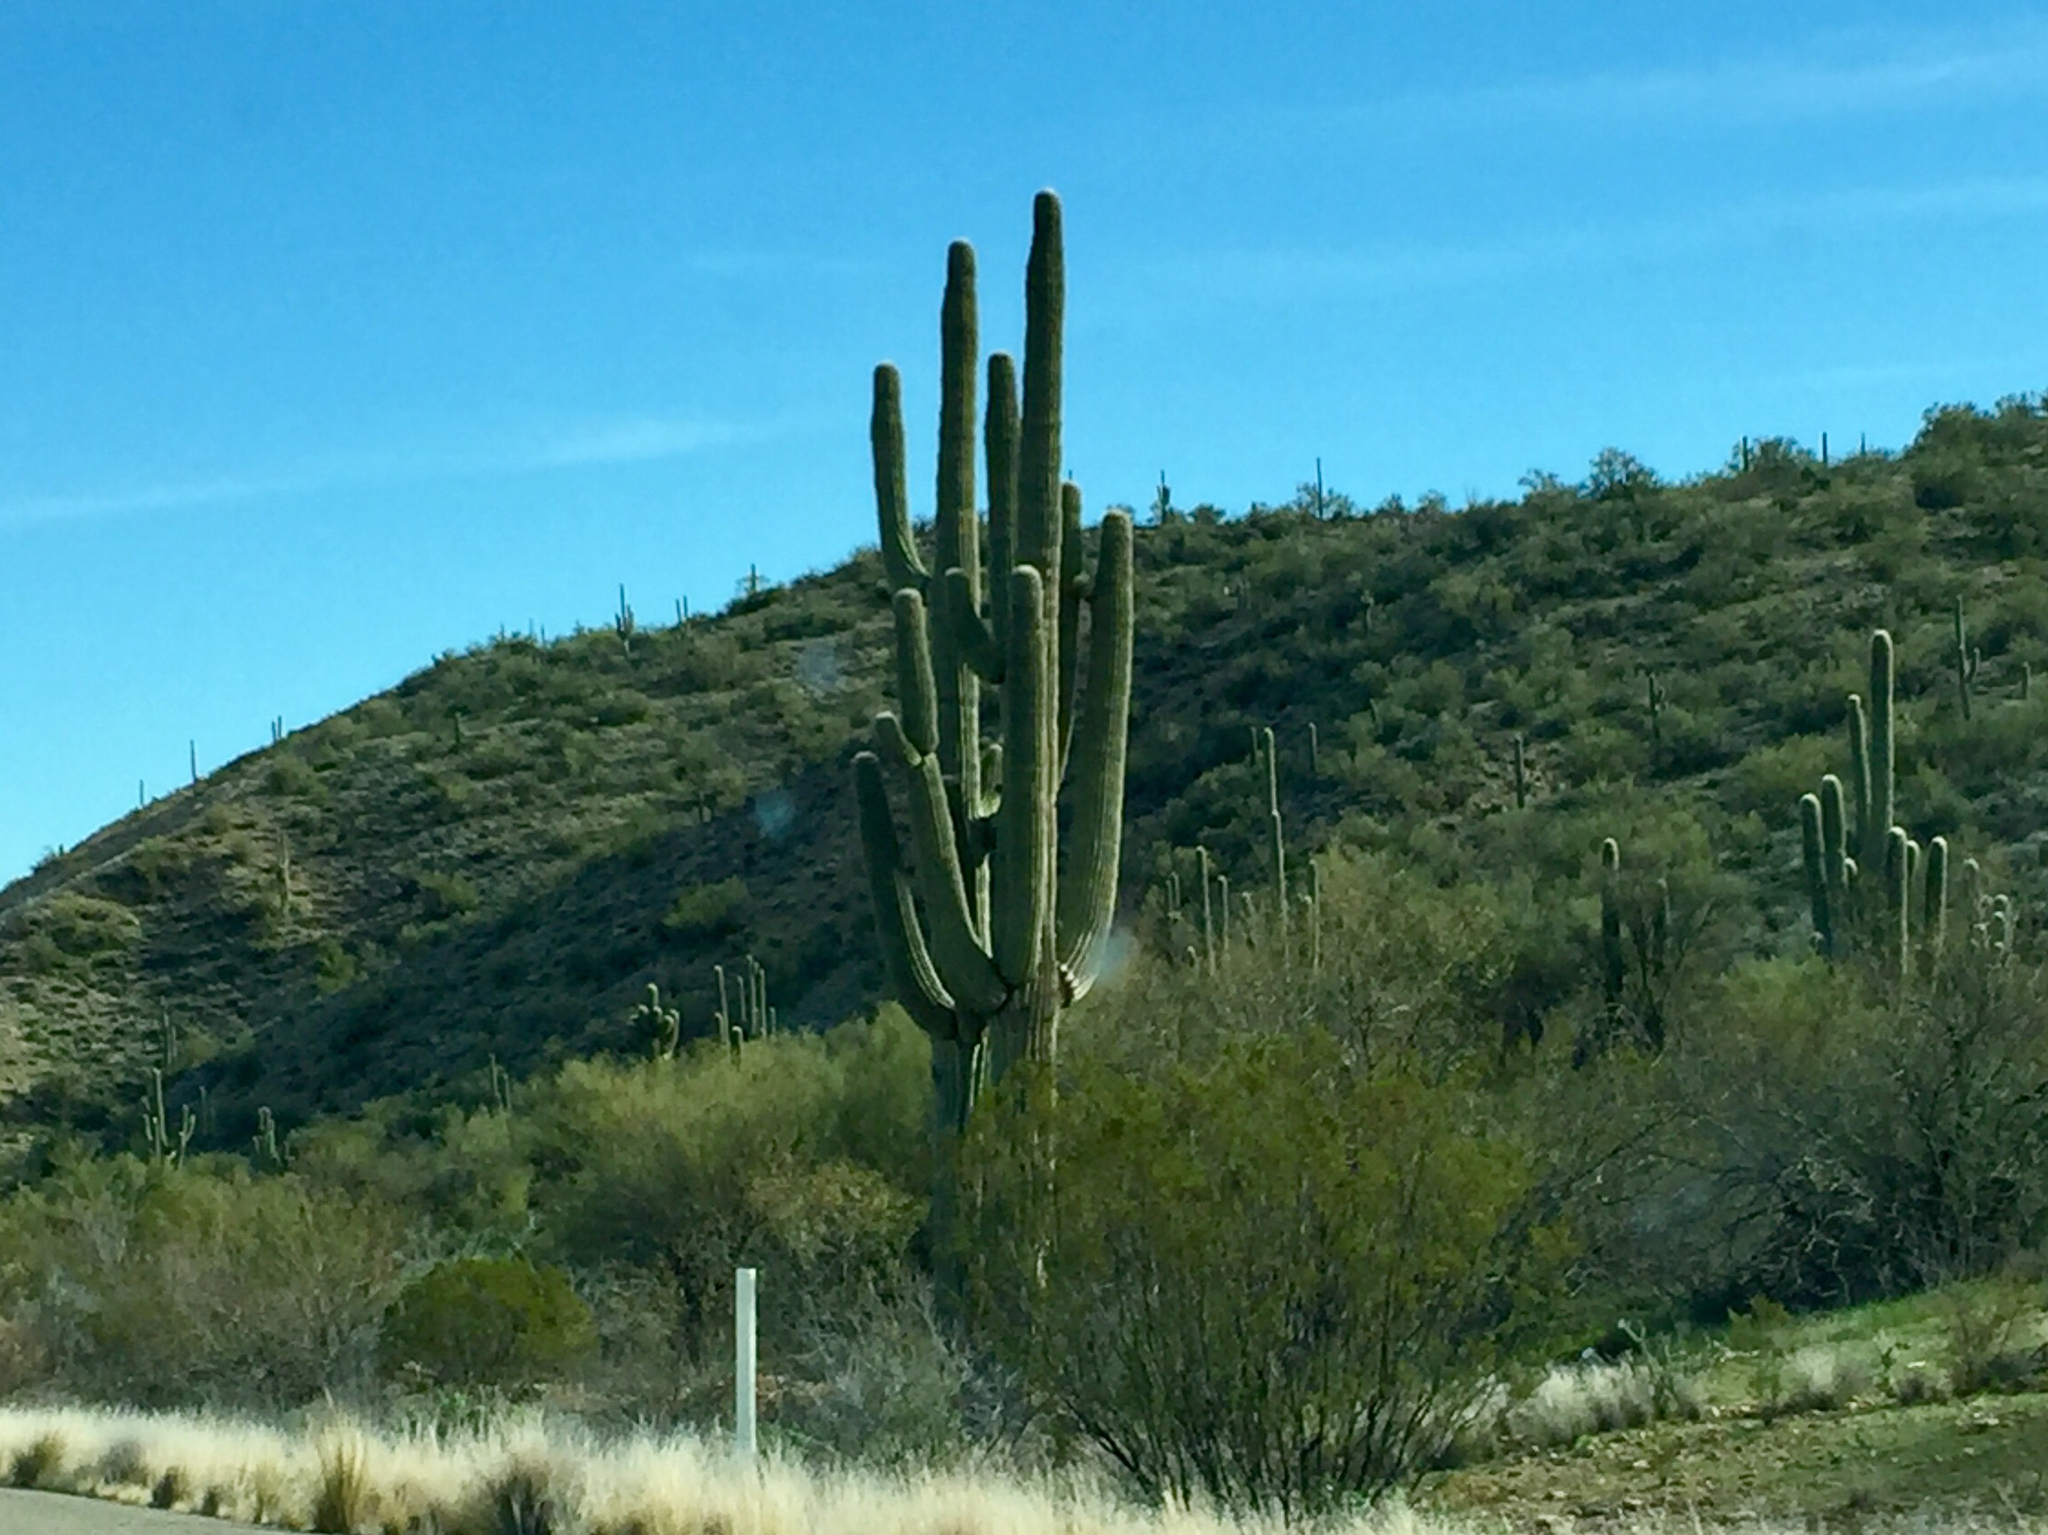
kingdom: Plantae
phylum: Tracheophyta
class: Magnoliopsida
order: Caryophyllales
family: Cactaceae
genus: Carnegiea
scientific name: Carnegiea gigantea
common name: Saguaro
